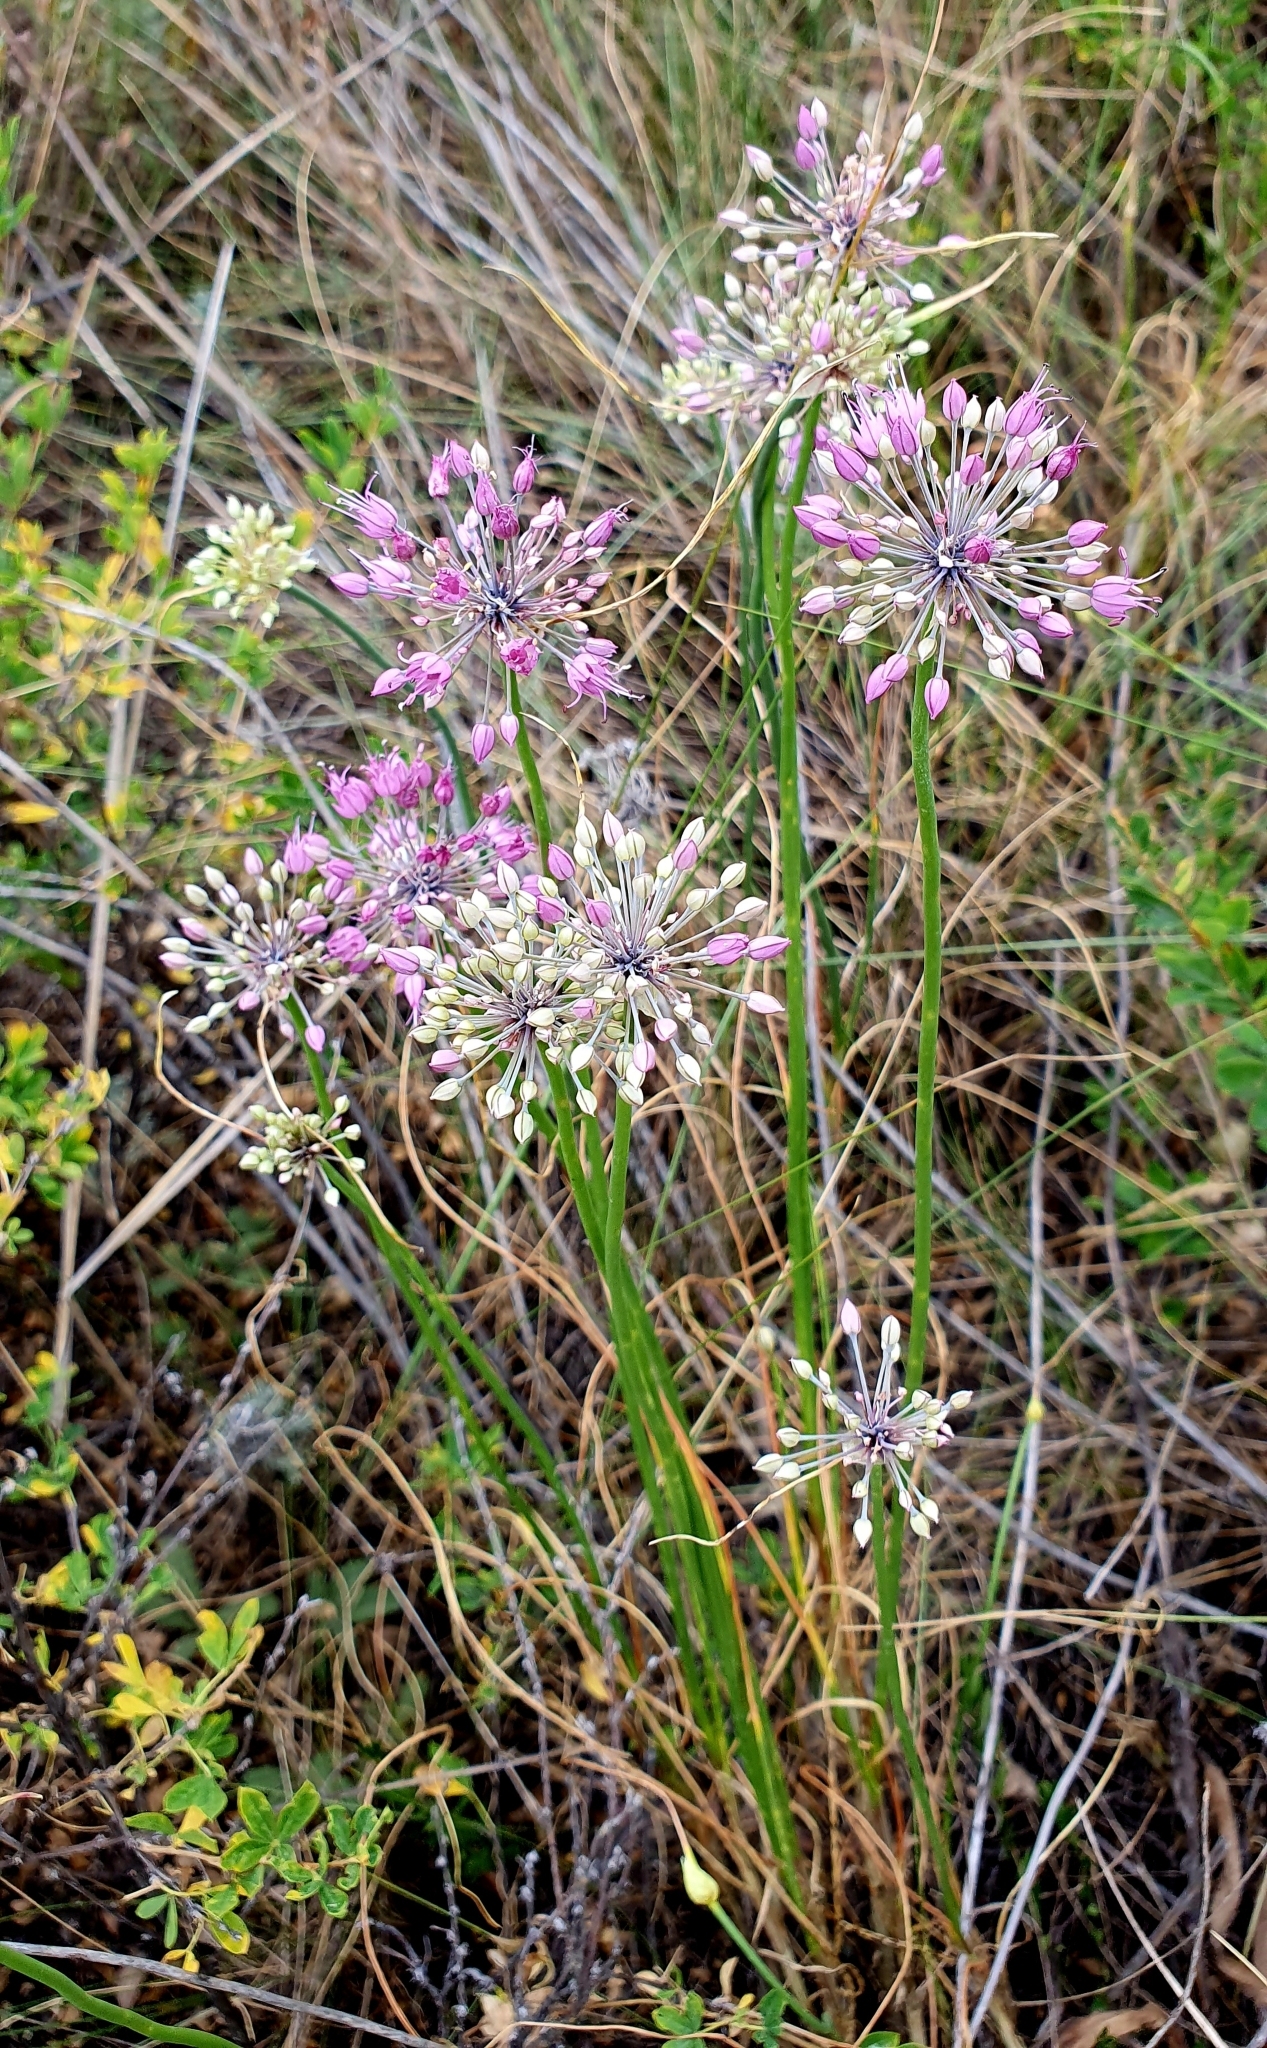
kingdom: Plantae
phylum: Tracheophyta
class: Liliopsida
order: Asparagales
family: Amaryllidaceae
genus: Allium
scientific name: Allium cretaceum
